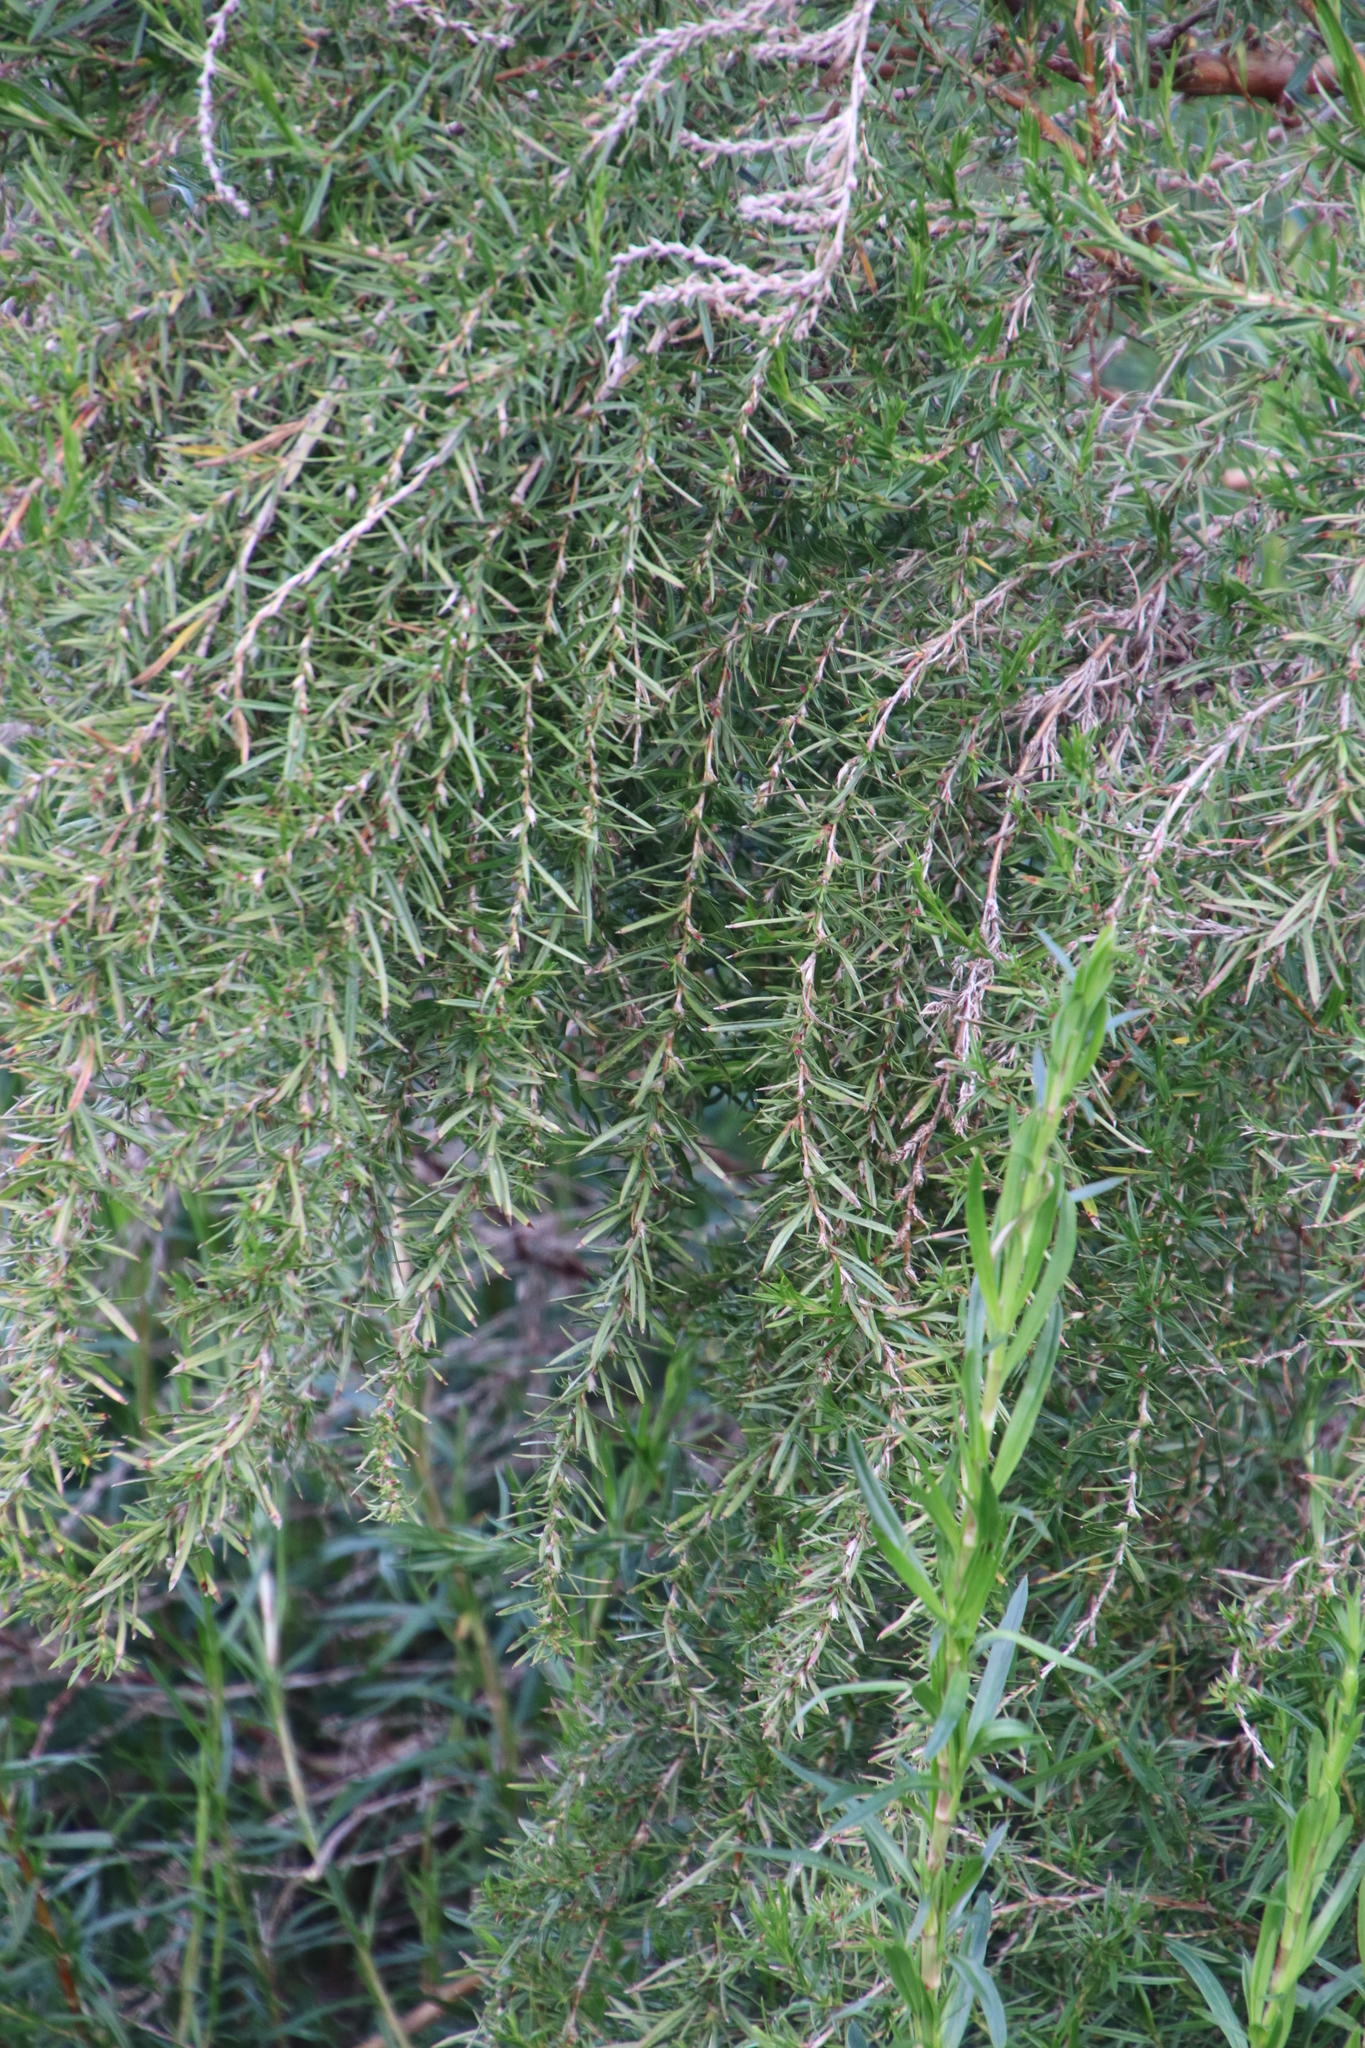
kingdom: Plantae
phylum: Tracheophyta
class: Magnoliopsida
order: Rosales
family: Rosaceae
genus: Cliffortia
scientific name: Cliffortia strobilifera
